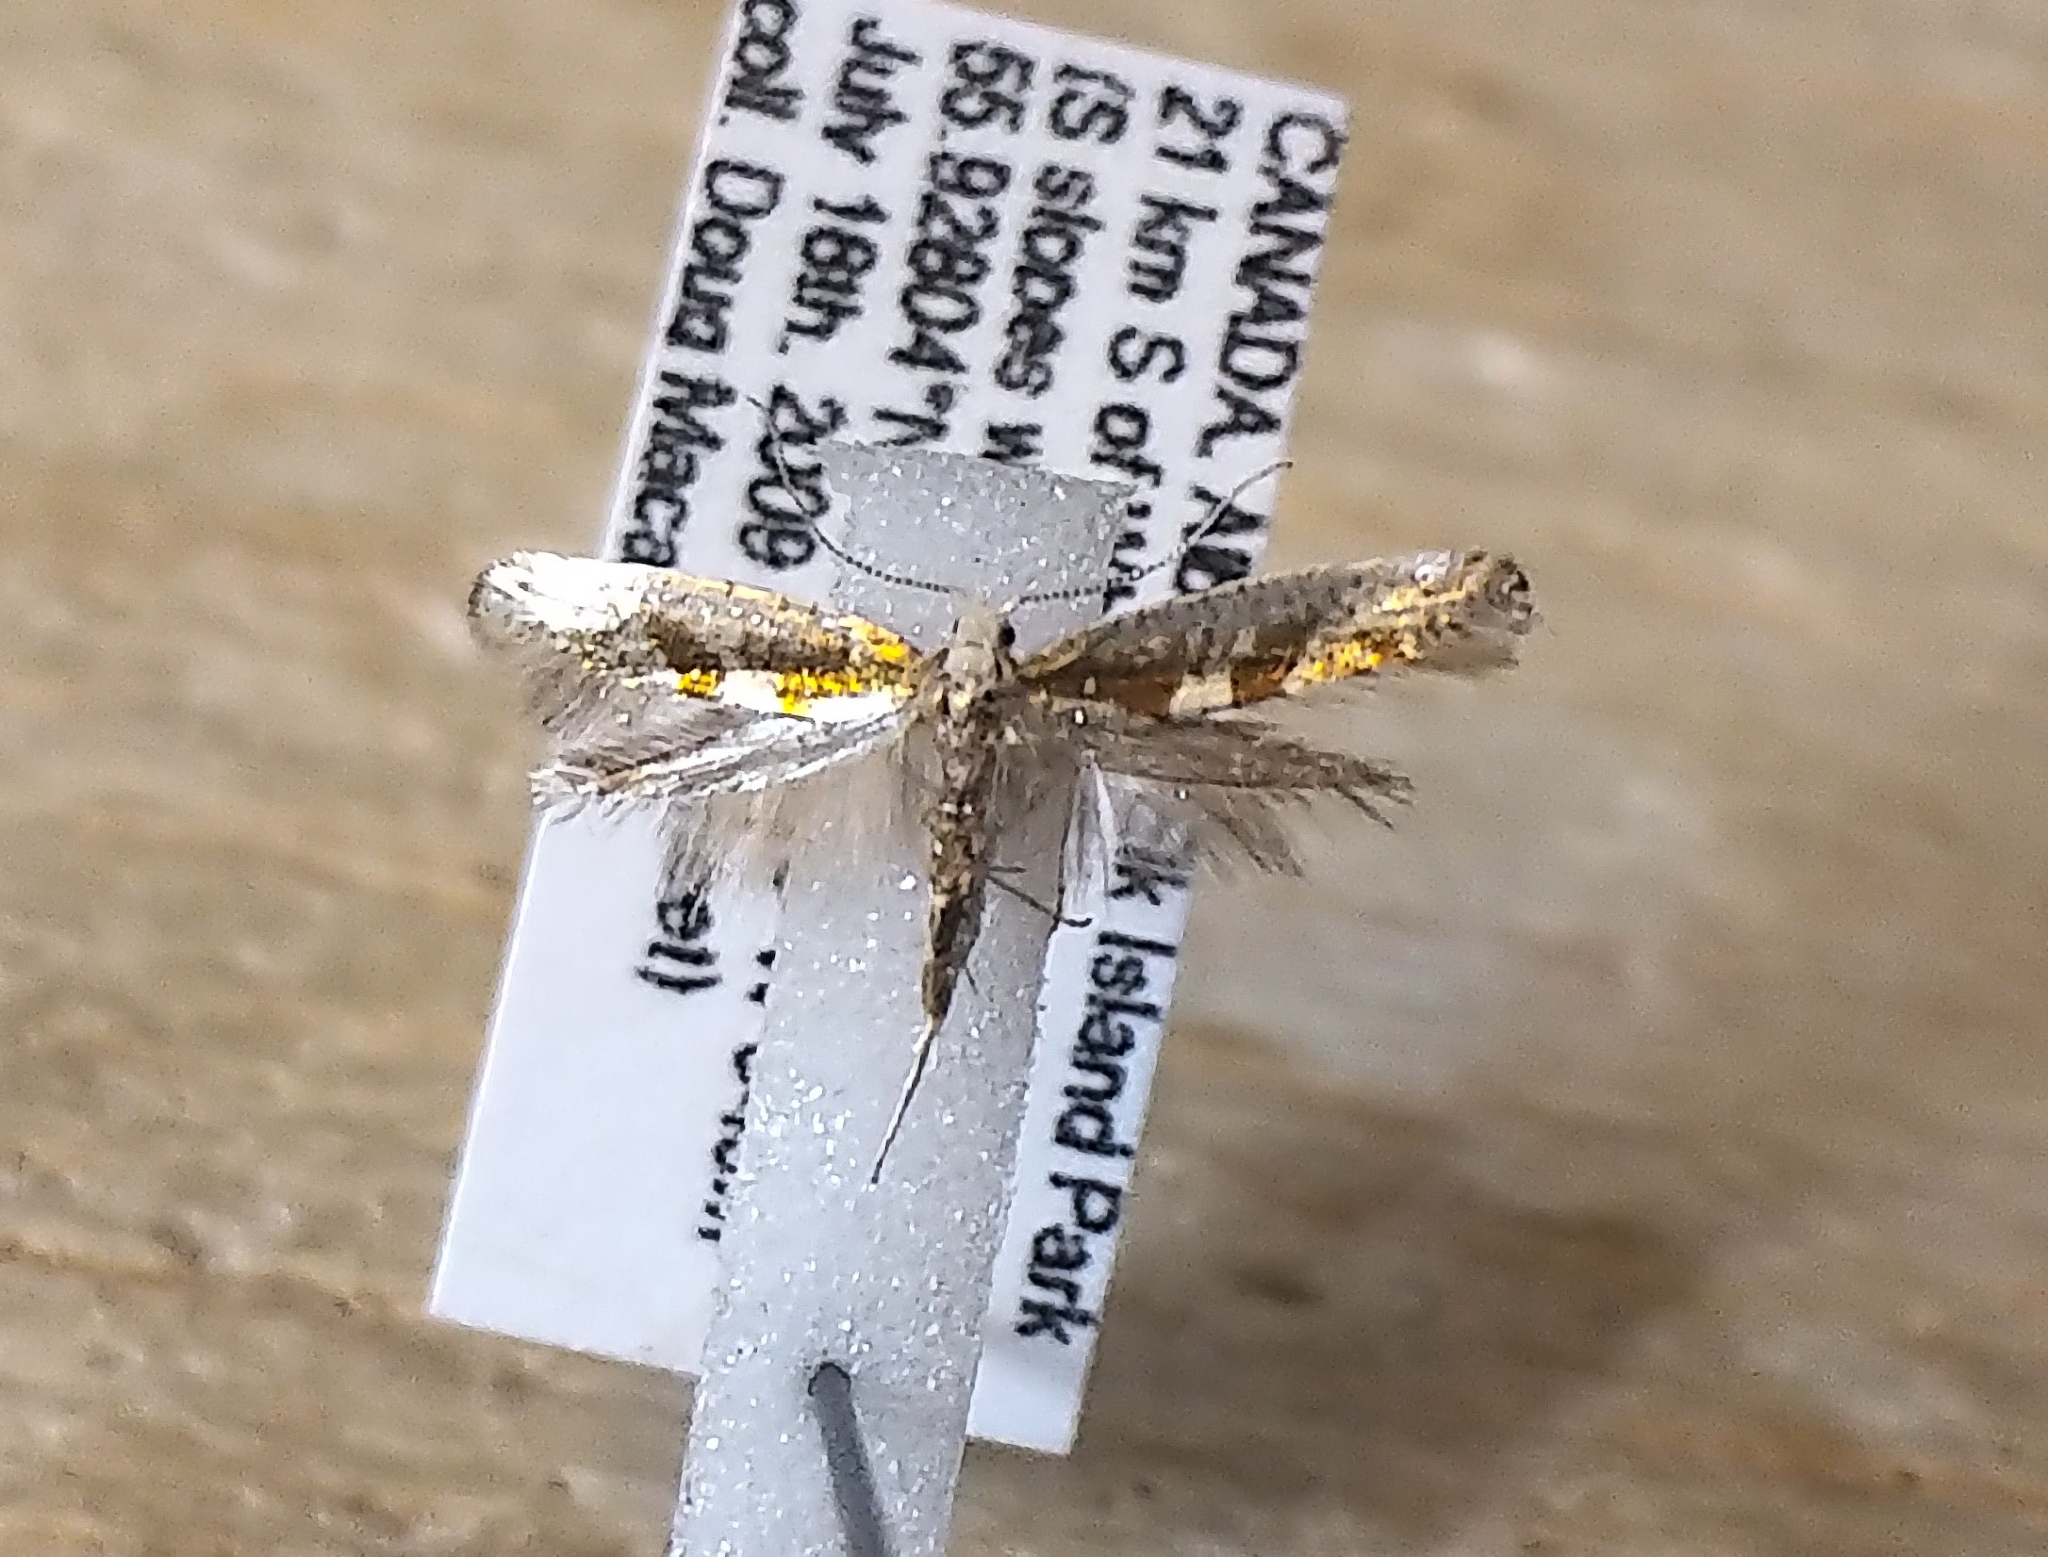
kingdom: Animalia
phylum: Arthropoda
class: Insecta
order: Lepidoptera
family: Argyresthiidae
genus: Argyresthia
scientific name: Argyresthia pygmaeella
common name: Sallow argent
